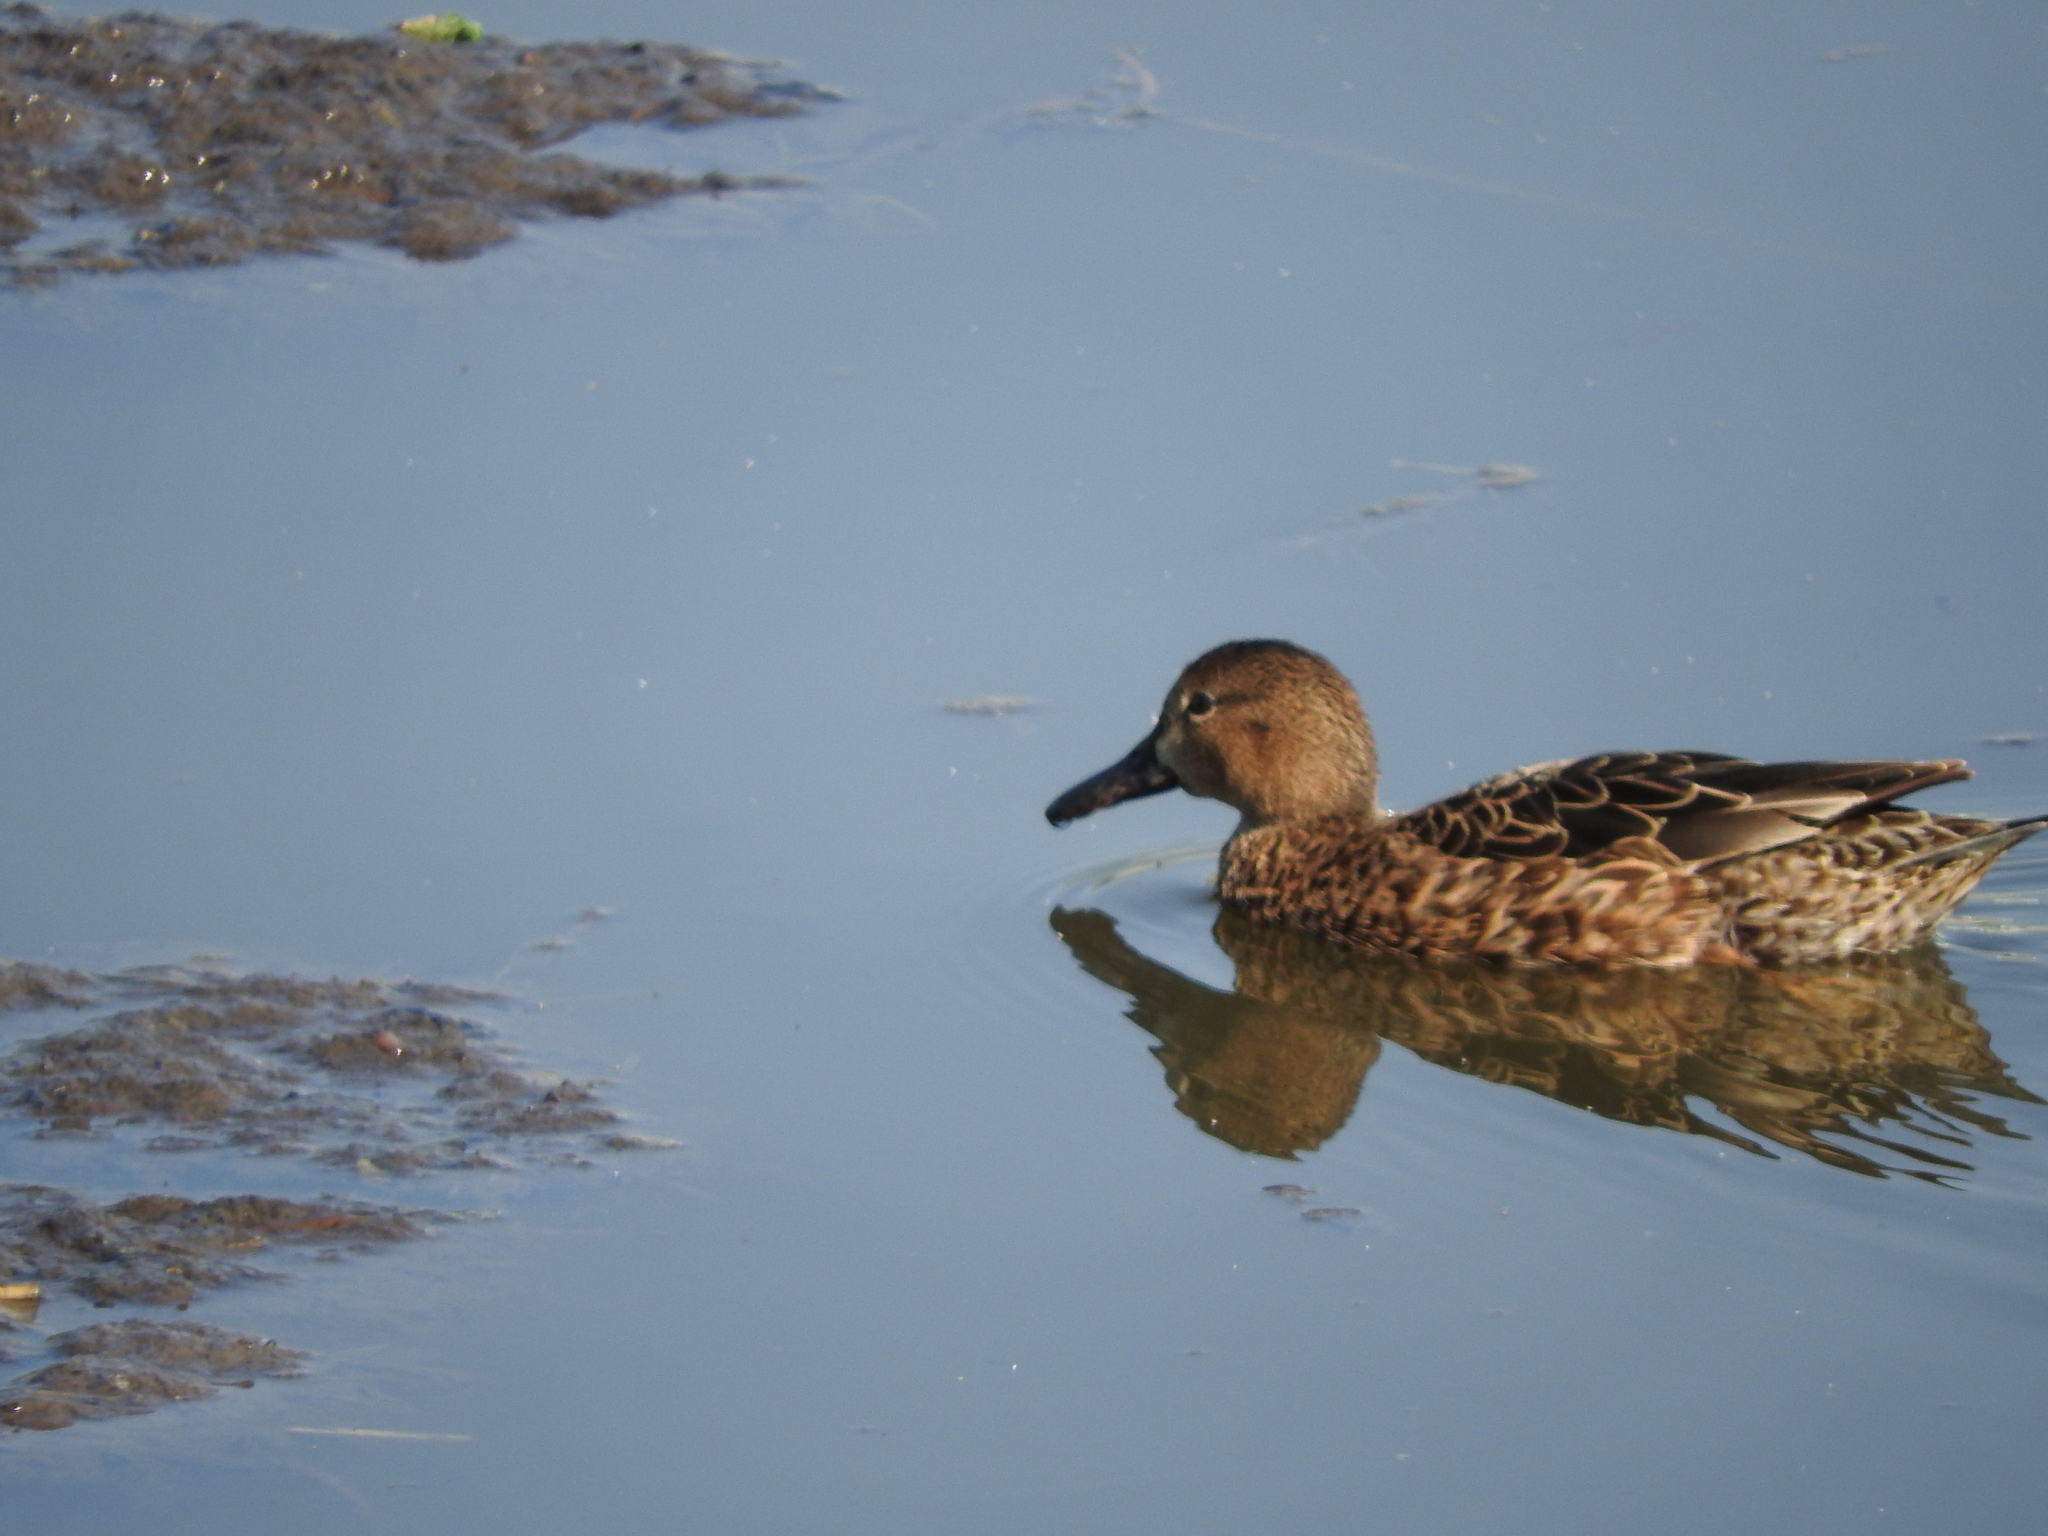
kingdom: Animalia
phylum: Chordata
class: Aves
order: Anseriformes
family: Anatidae
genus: Spatula
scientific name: Spatula discors
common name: Blue-winged teal
